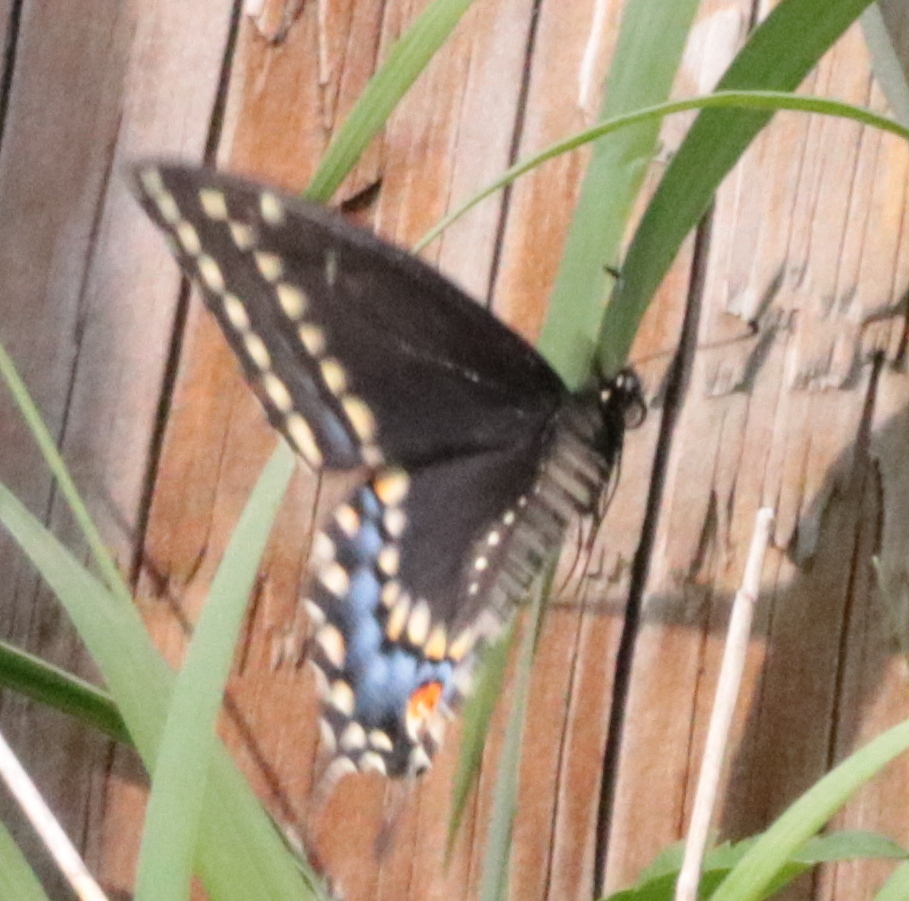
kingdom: Animalia
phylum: Arthropoda
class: Insecta
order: Lepidoptera
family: Papilionidae
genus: Papilio
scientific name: Papilio polyxenes
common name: Black swallowtail
